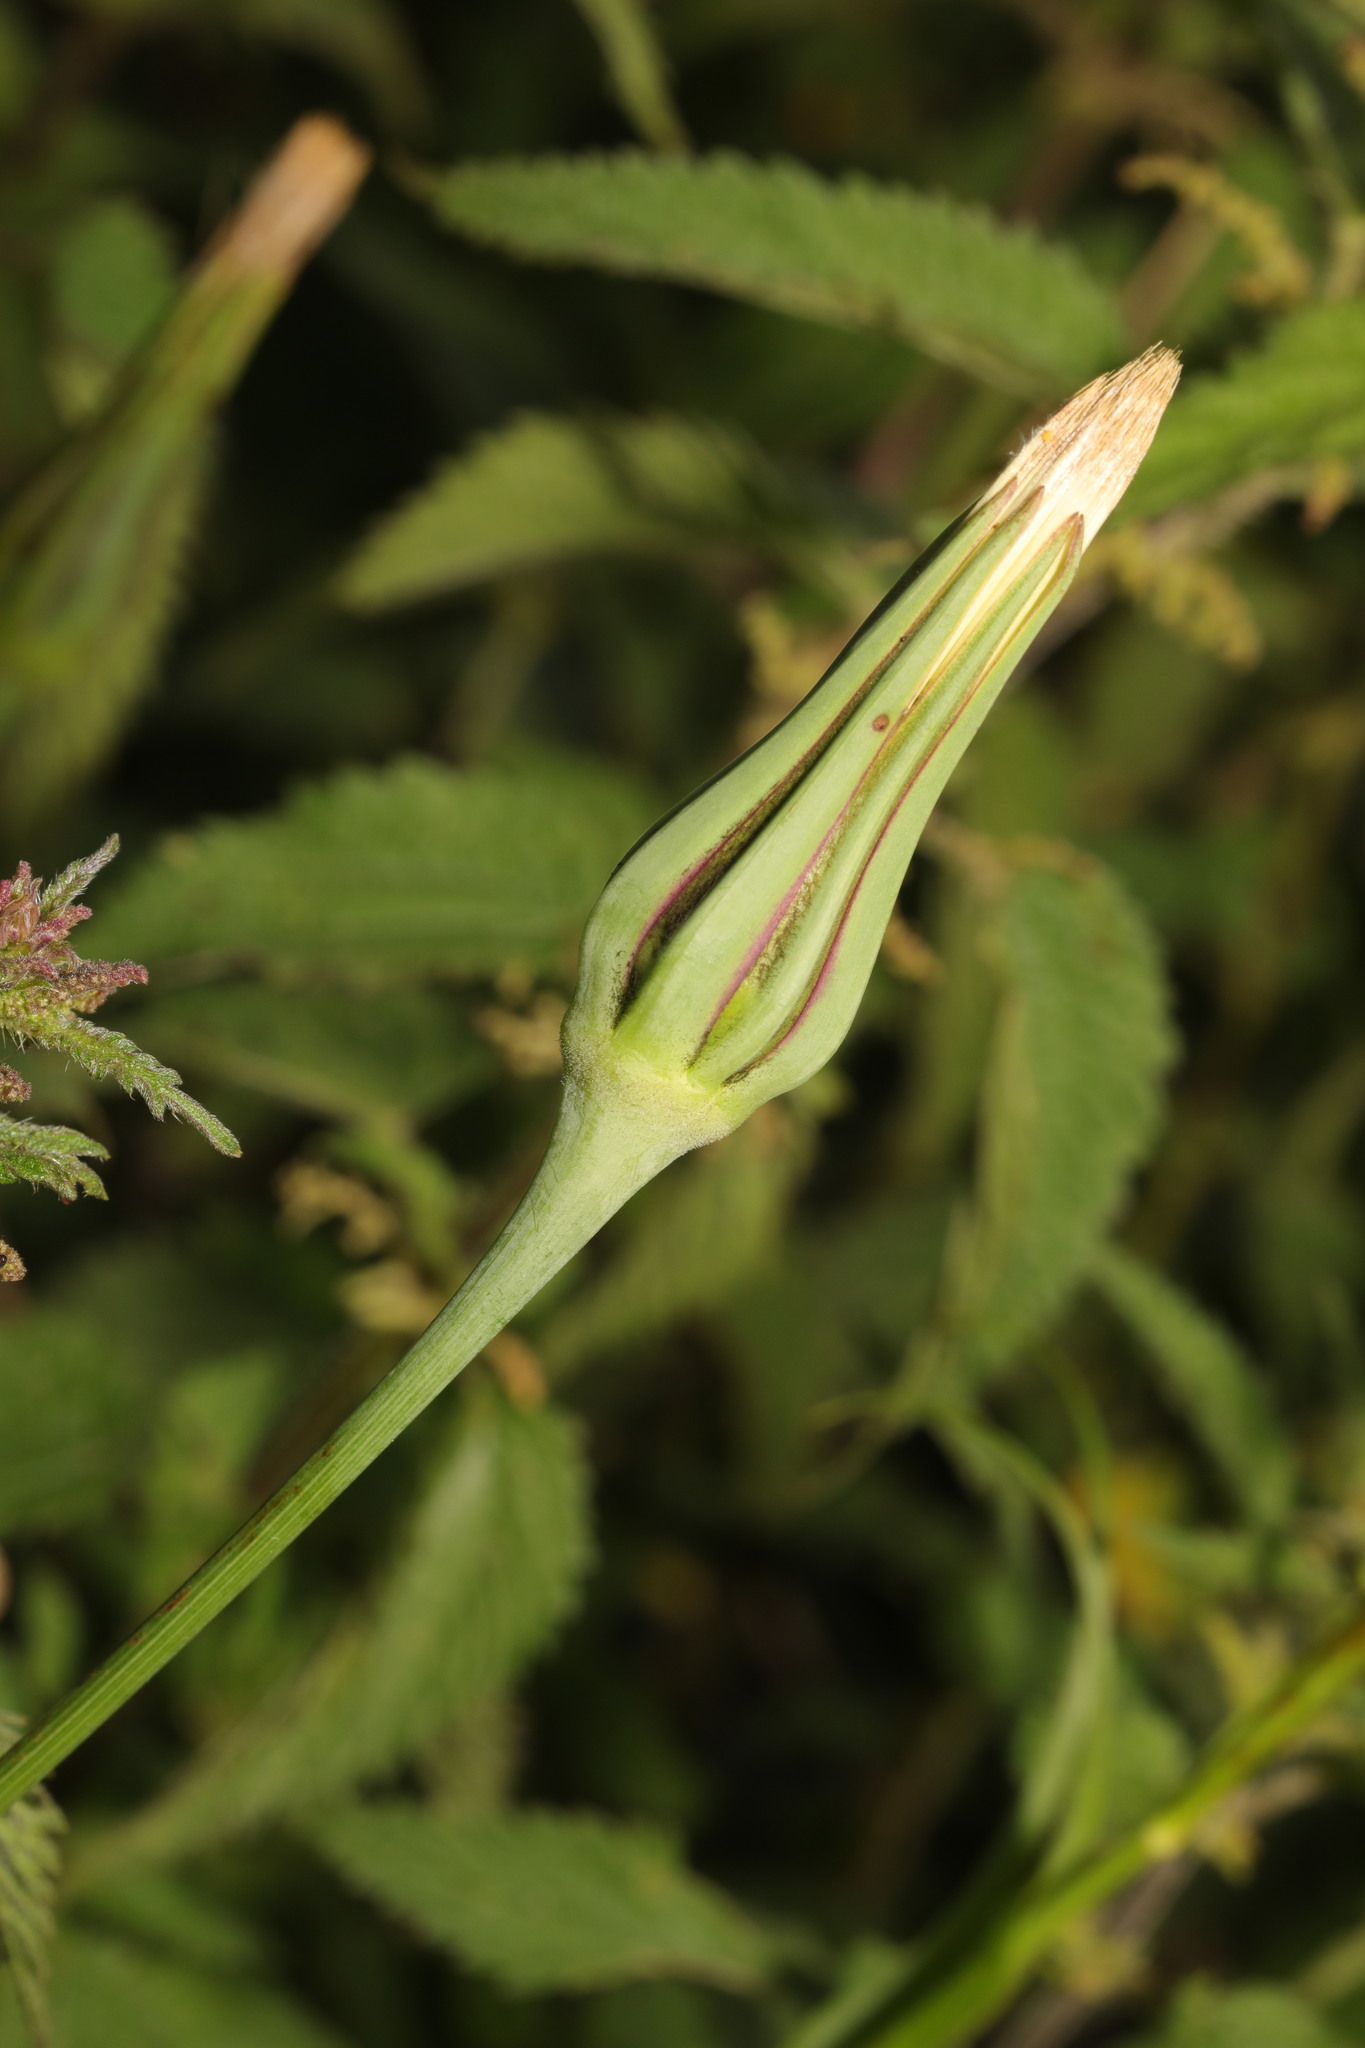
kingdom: Plantae
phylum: Tracheophyta
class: Magnoliopsida
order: Asterales
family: Asteraceae
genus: Tragopogon
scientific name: Tragopogon pratensis
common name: Goat's-beard
